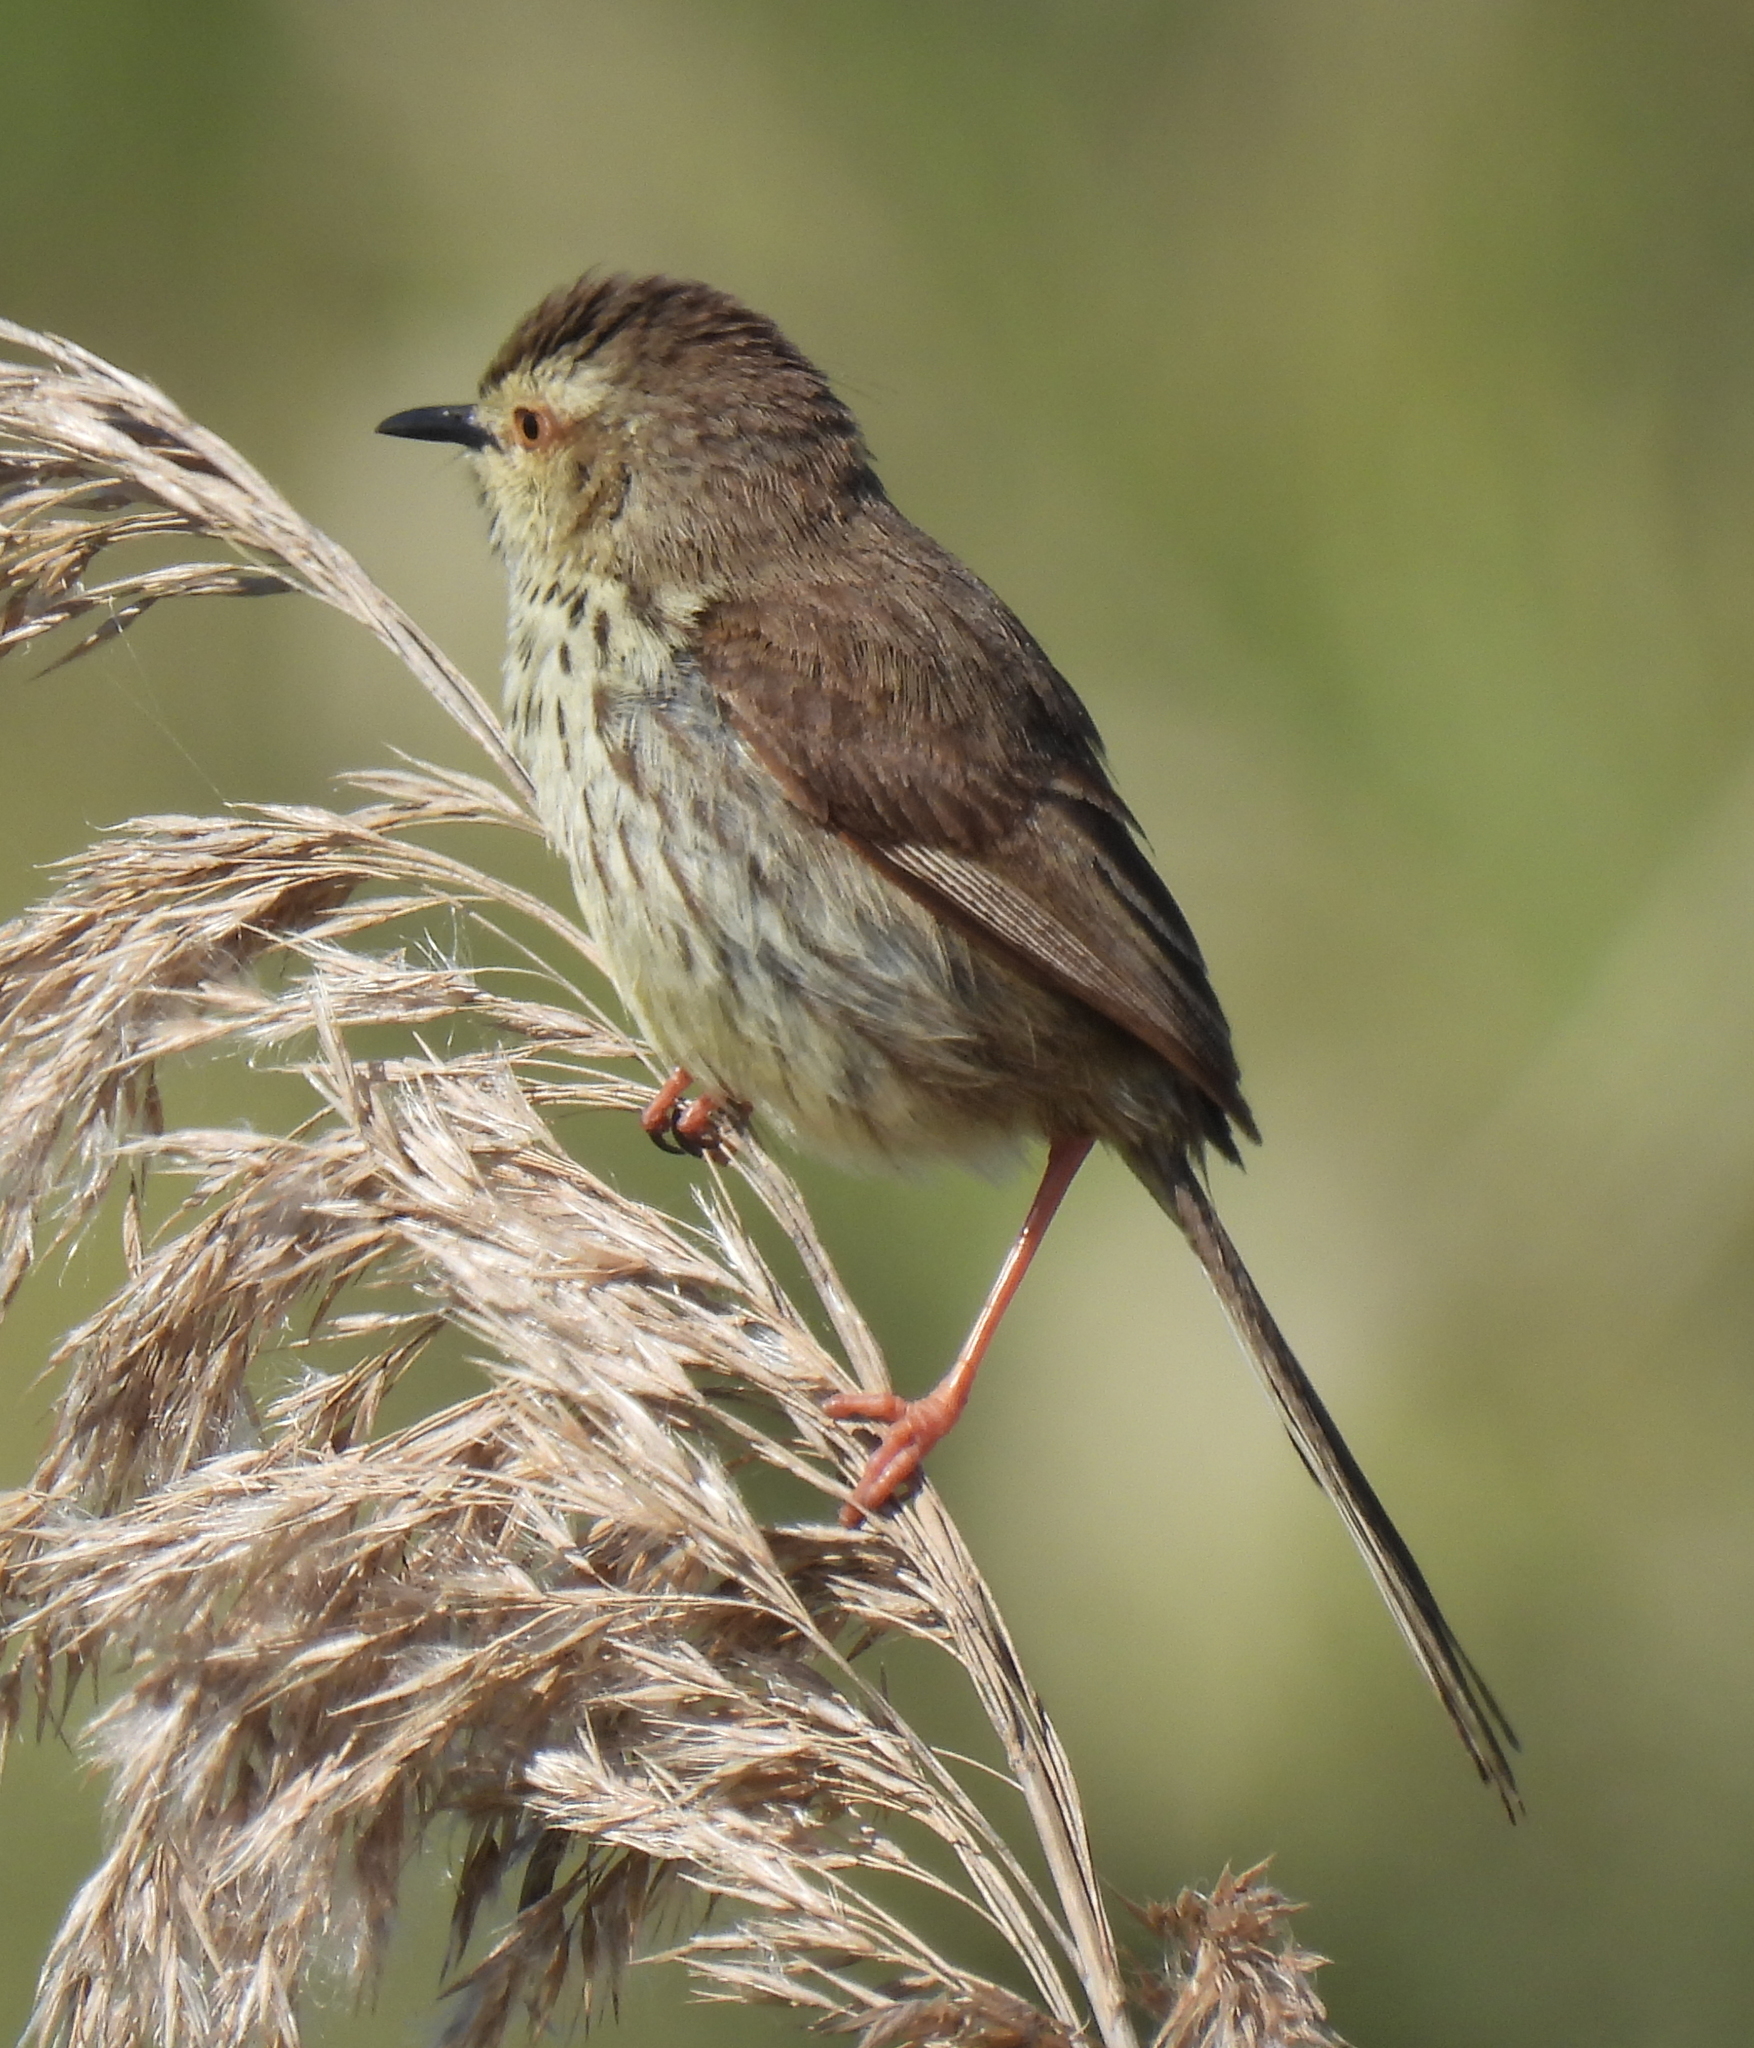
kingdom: Animalia
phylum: Chordata
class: Aves
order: Passeriformes
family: Cisticolidae
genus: Prinia
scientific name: Prinia maculosa
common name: Karoo prinia
